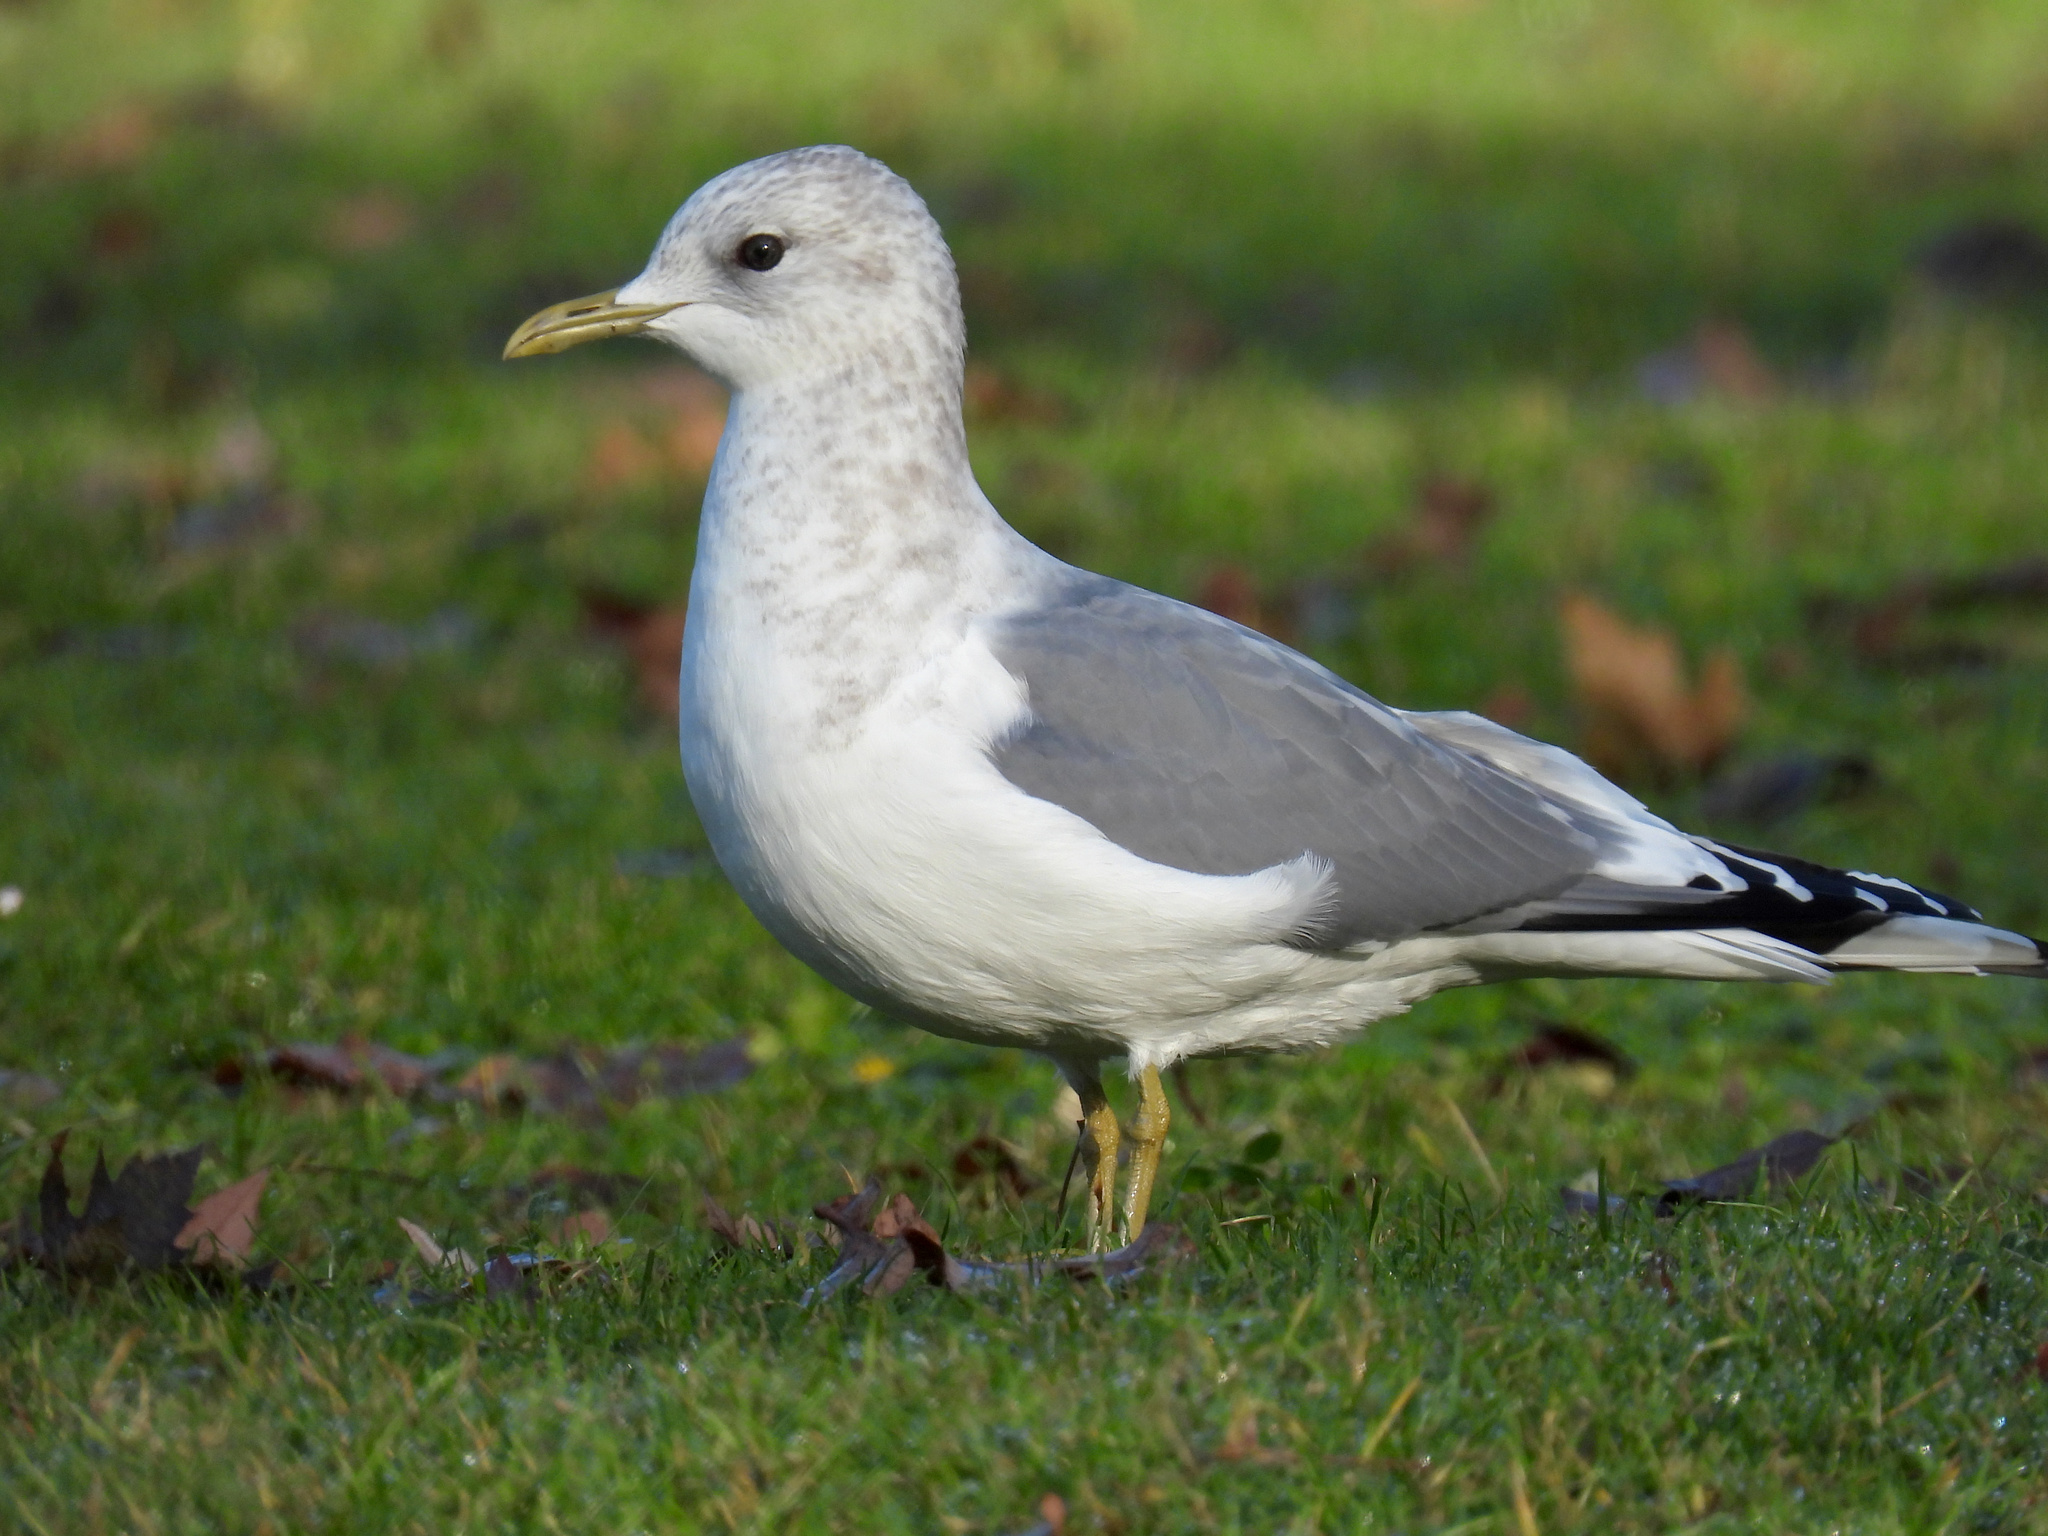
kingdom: Animalia
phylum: Chordata
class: Aves
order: Charadriiformes
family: Laridae
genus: Larus
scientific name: Larus brachyrhynchus
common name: Short-billed gull
